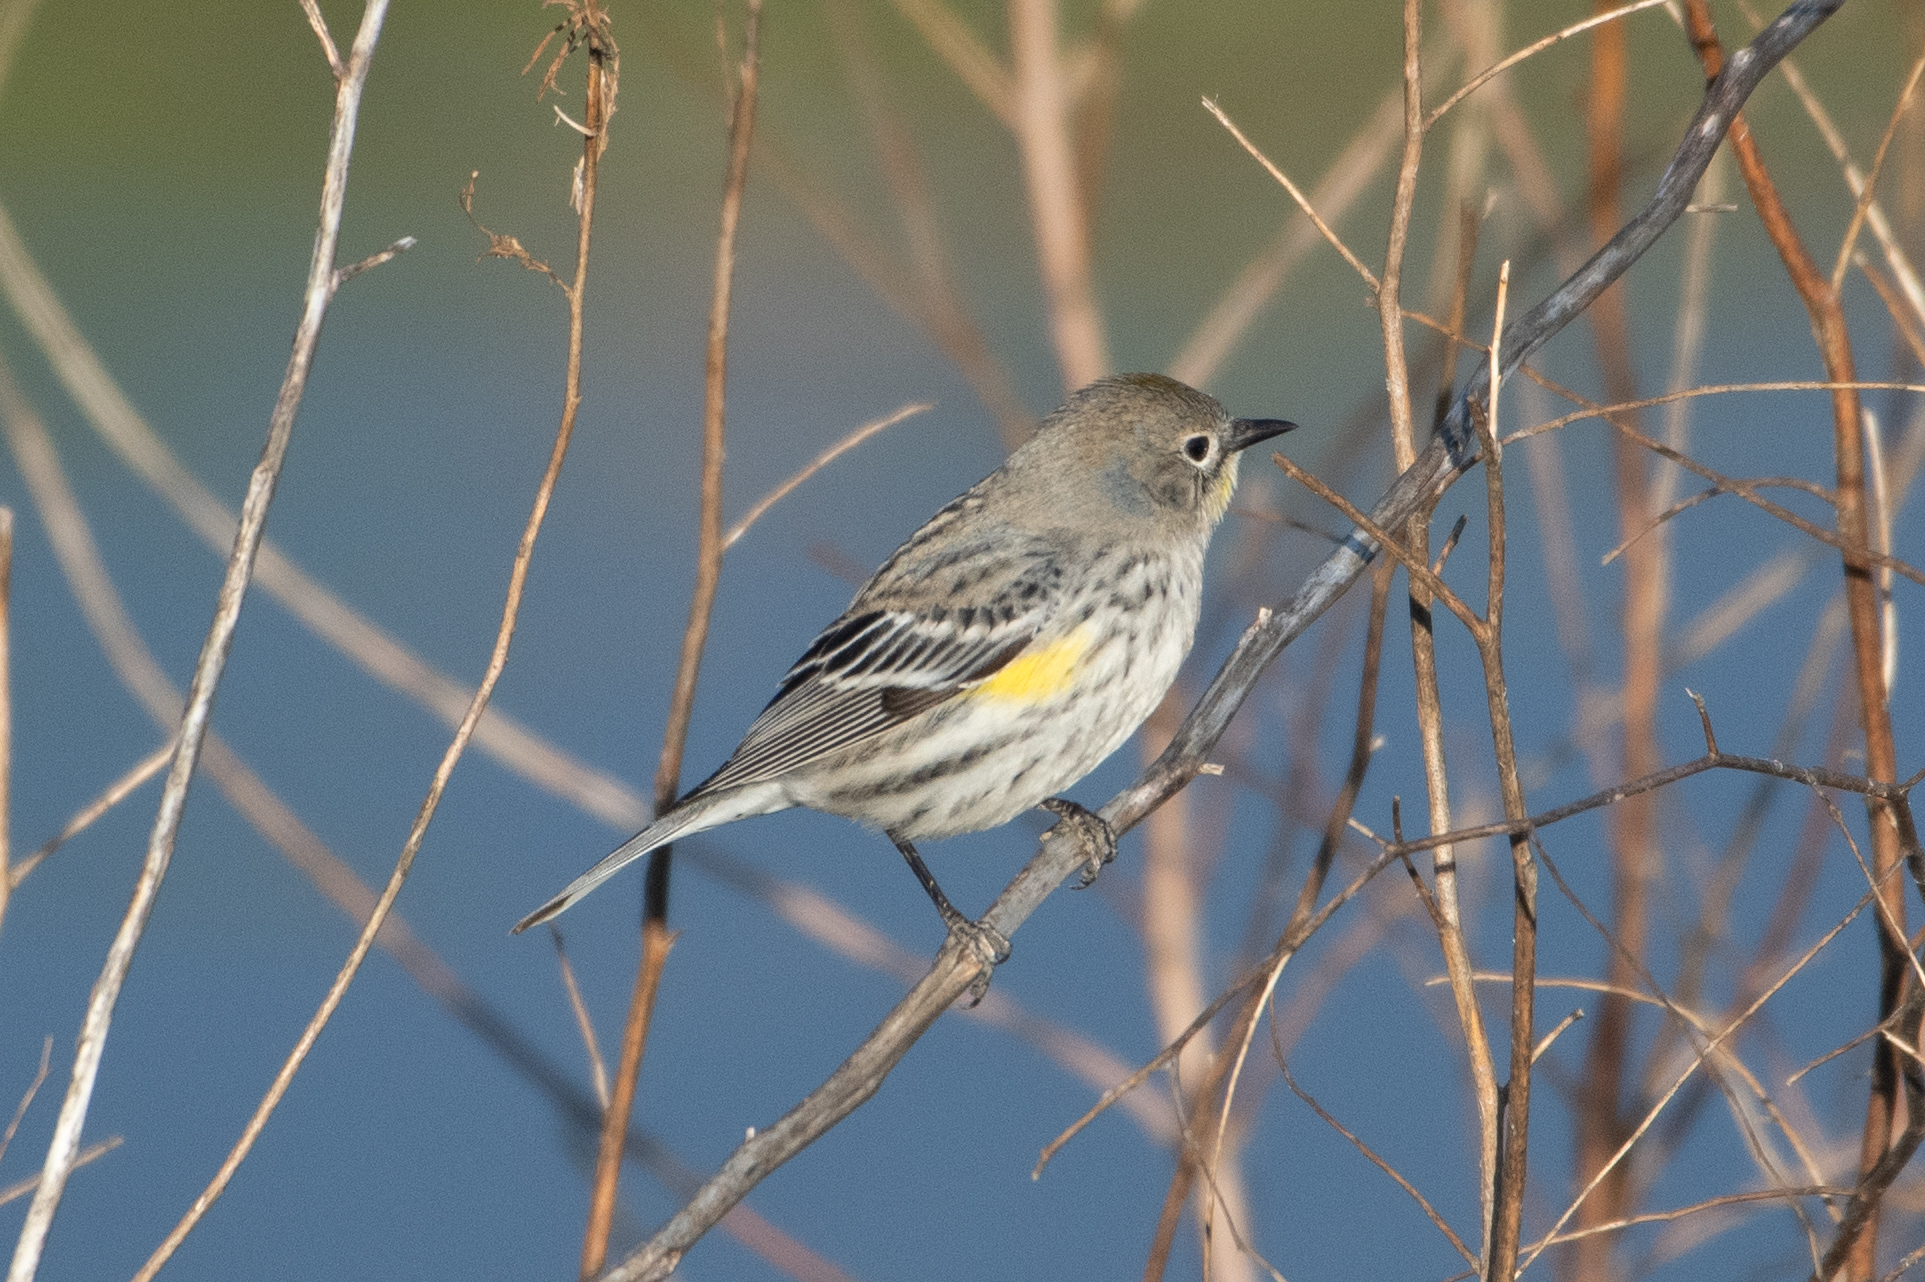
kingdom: Animalia
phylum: Chordata
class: Aves
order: Passeriformes
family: Parulidae
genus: Setophaga
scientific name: Setophaga coronata
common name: Myrtle warbler
